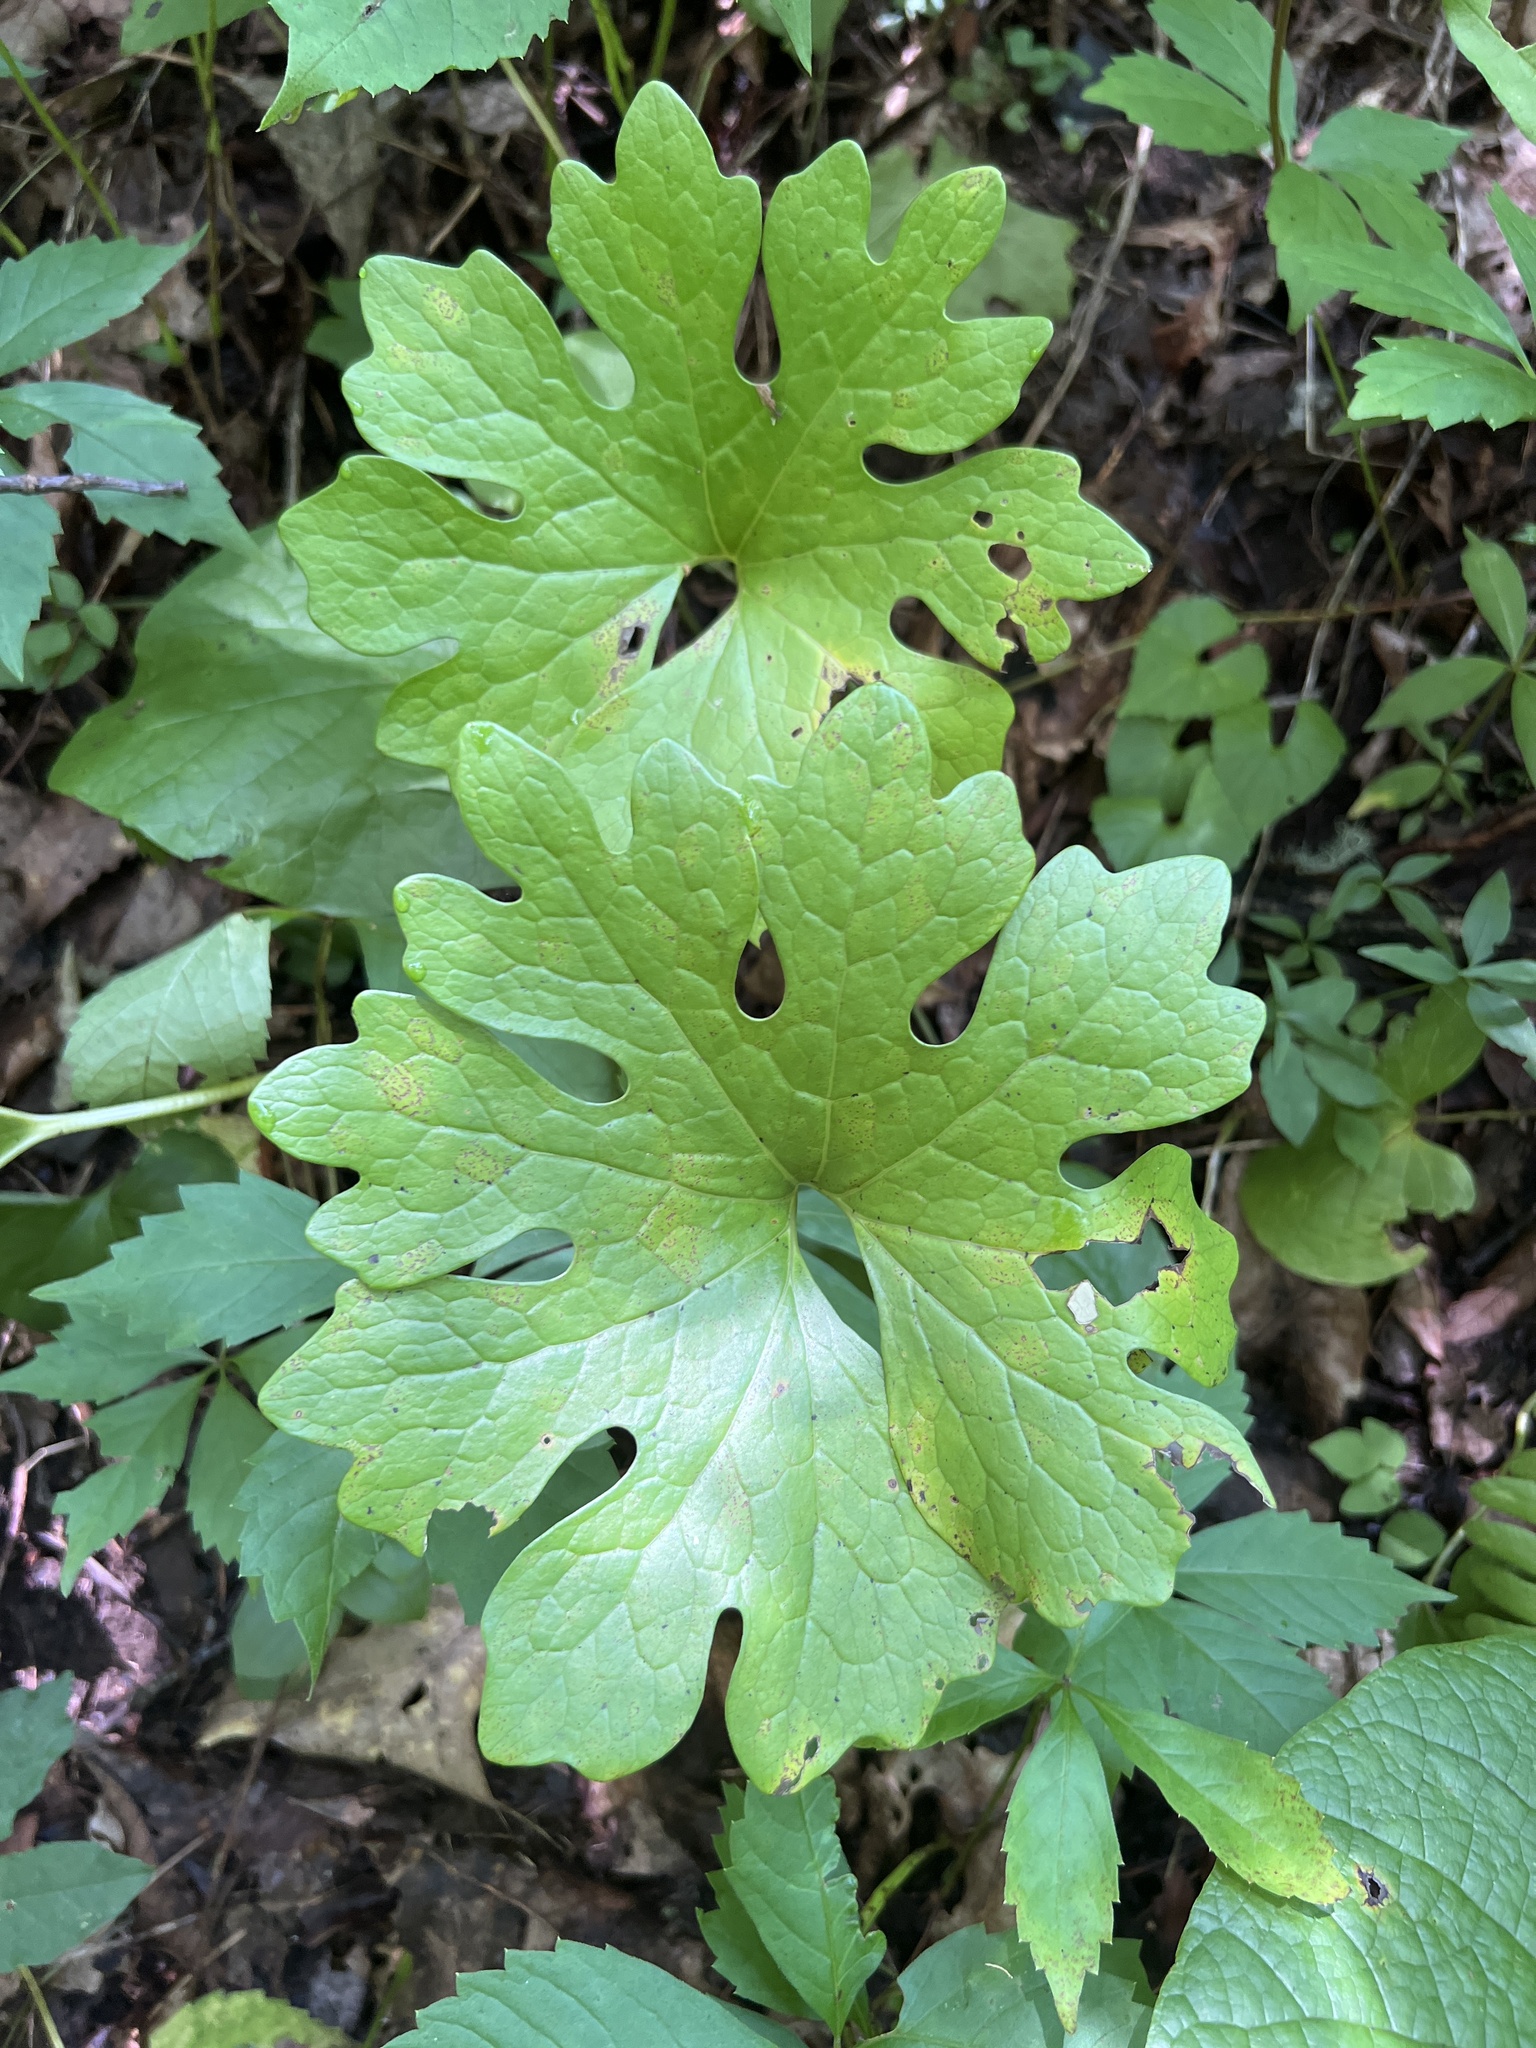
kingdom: Plantae
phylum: Tracheophyta
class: Magnoliopsida
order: Ranunculales
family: Papaveraceae
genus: Sanguinaria
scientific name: Sanguinaria canadensis
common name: Bloodroot
